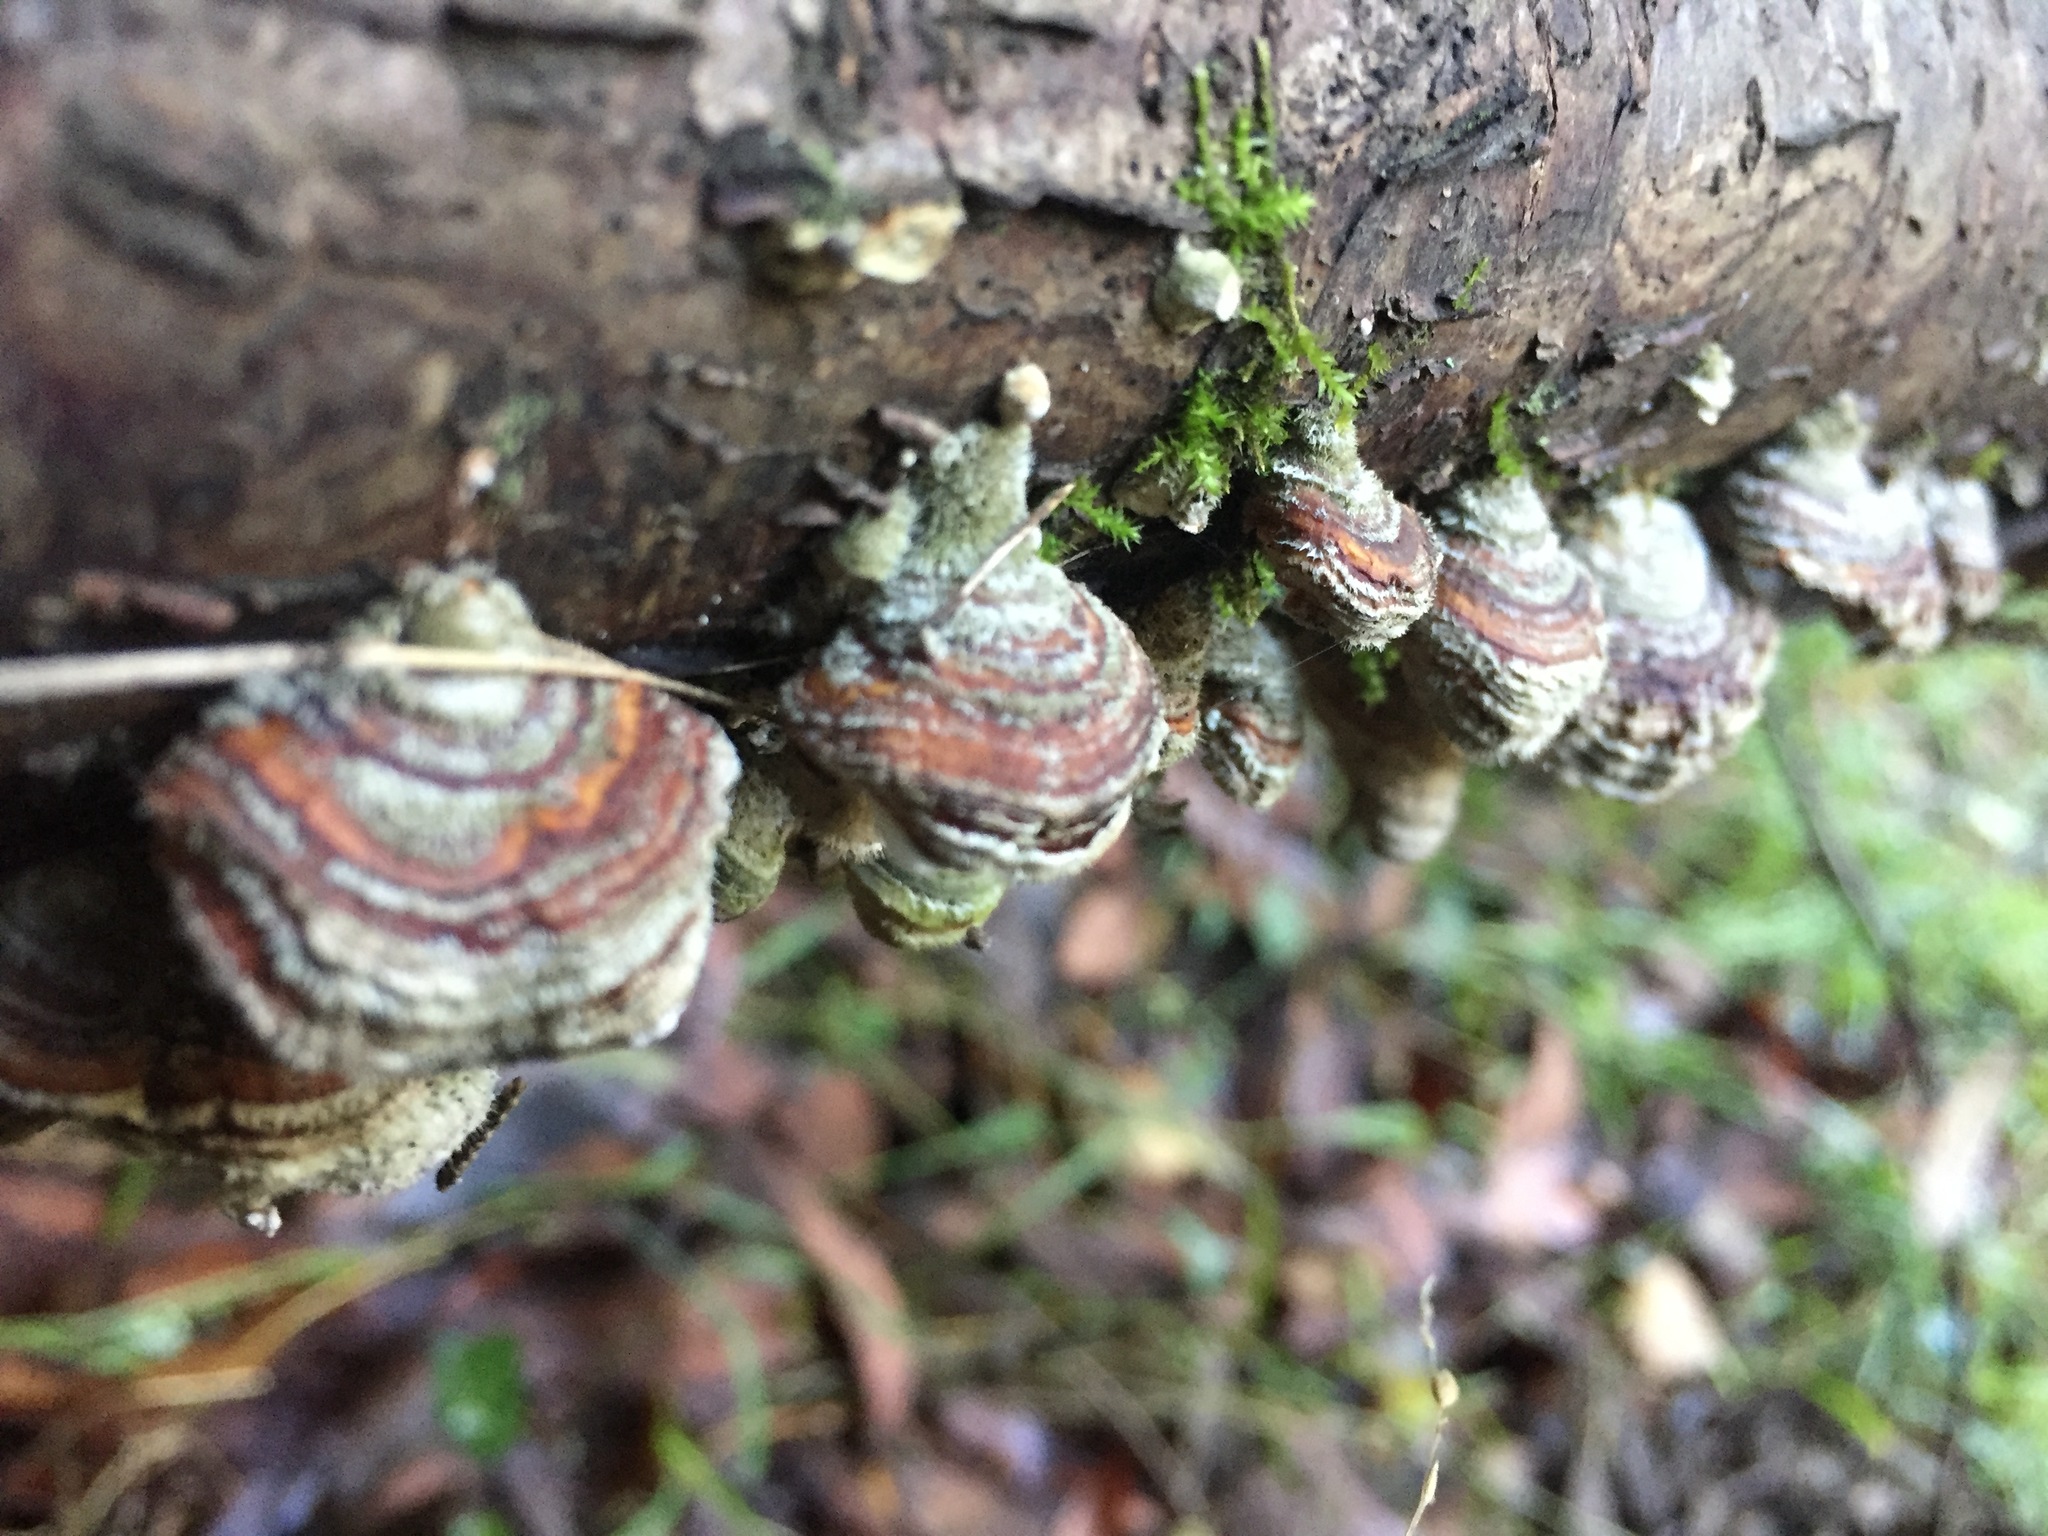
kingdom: Fungi
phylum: Basidiomycota
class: Agaricomycetes
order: Russulales
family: Stereaceae
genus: Stereum
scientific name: Stereum hirsutum
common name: Hairy curtain crust
